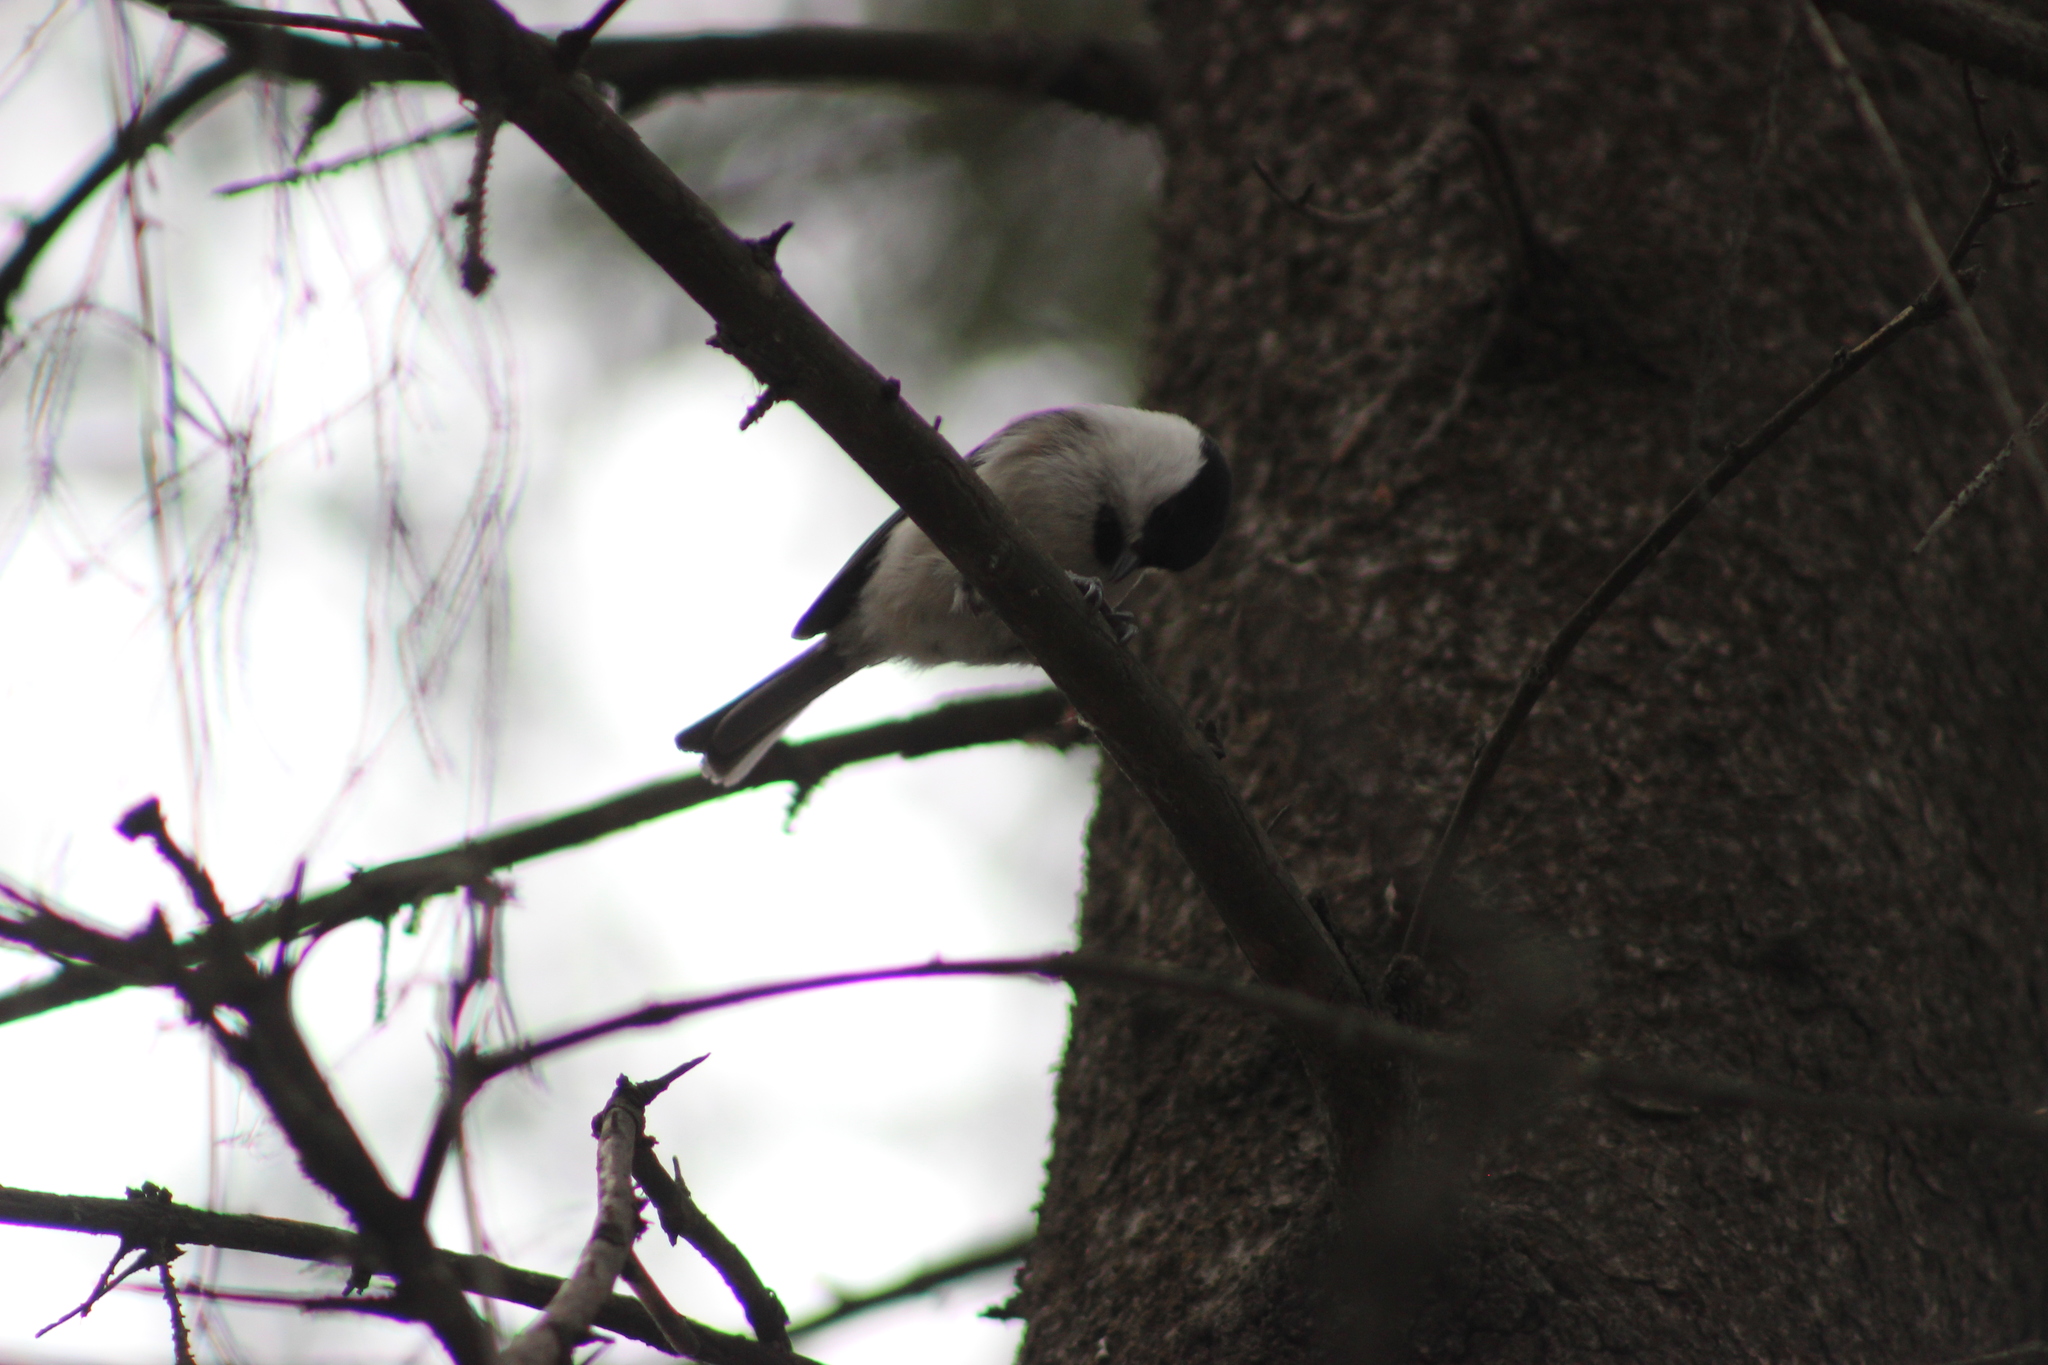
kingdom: Animalia
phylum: Chordata
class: Aves
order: Passeriformes
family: Paridae
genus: Poecile
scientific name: Poecile montanus
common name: Willow tit
